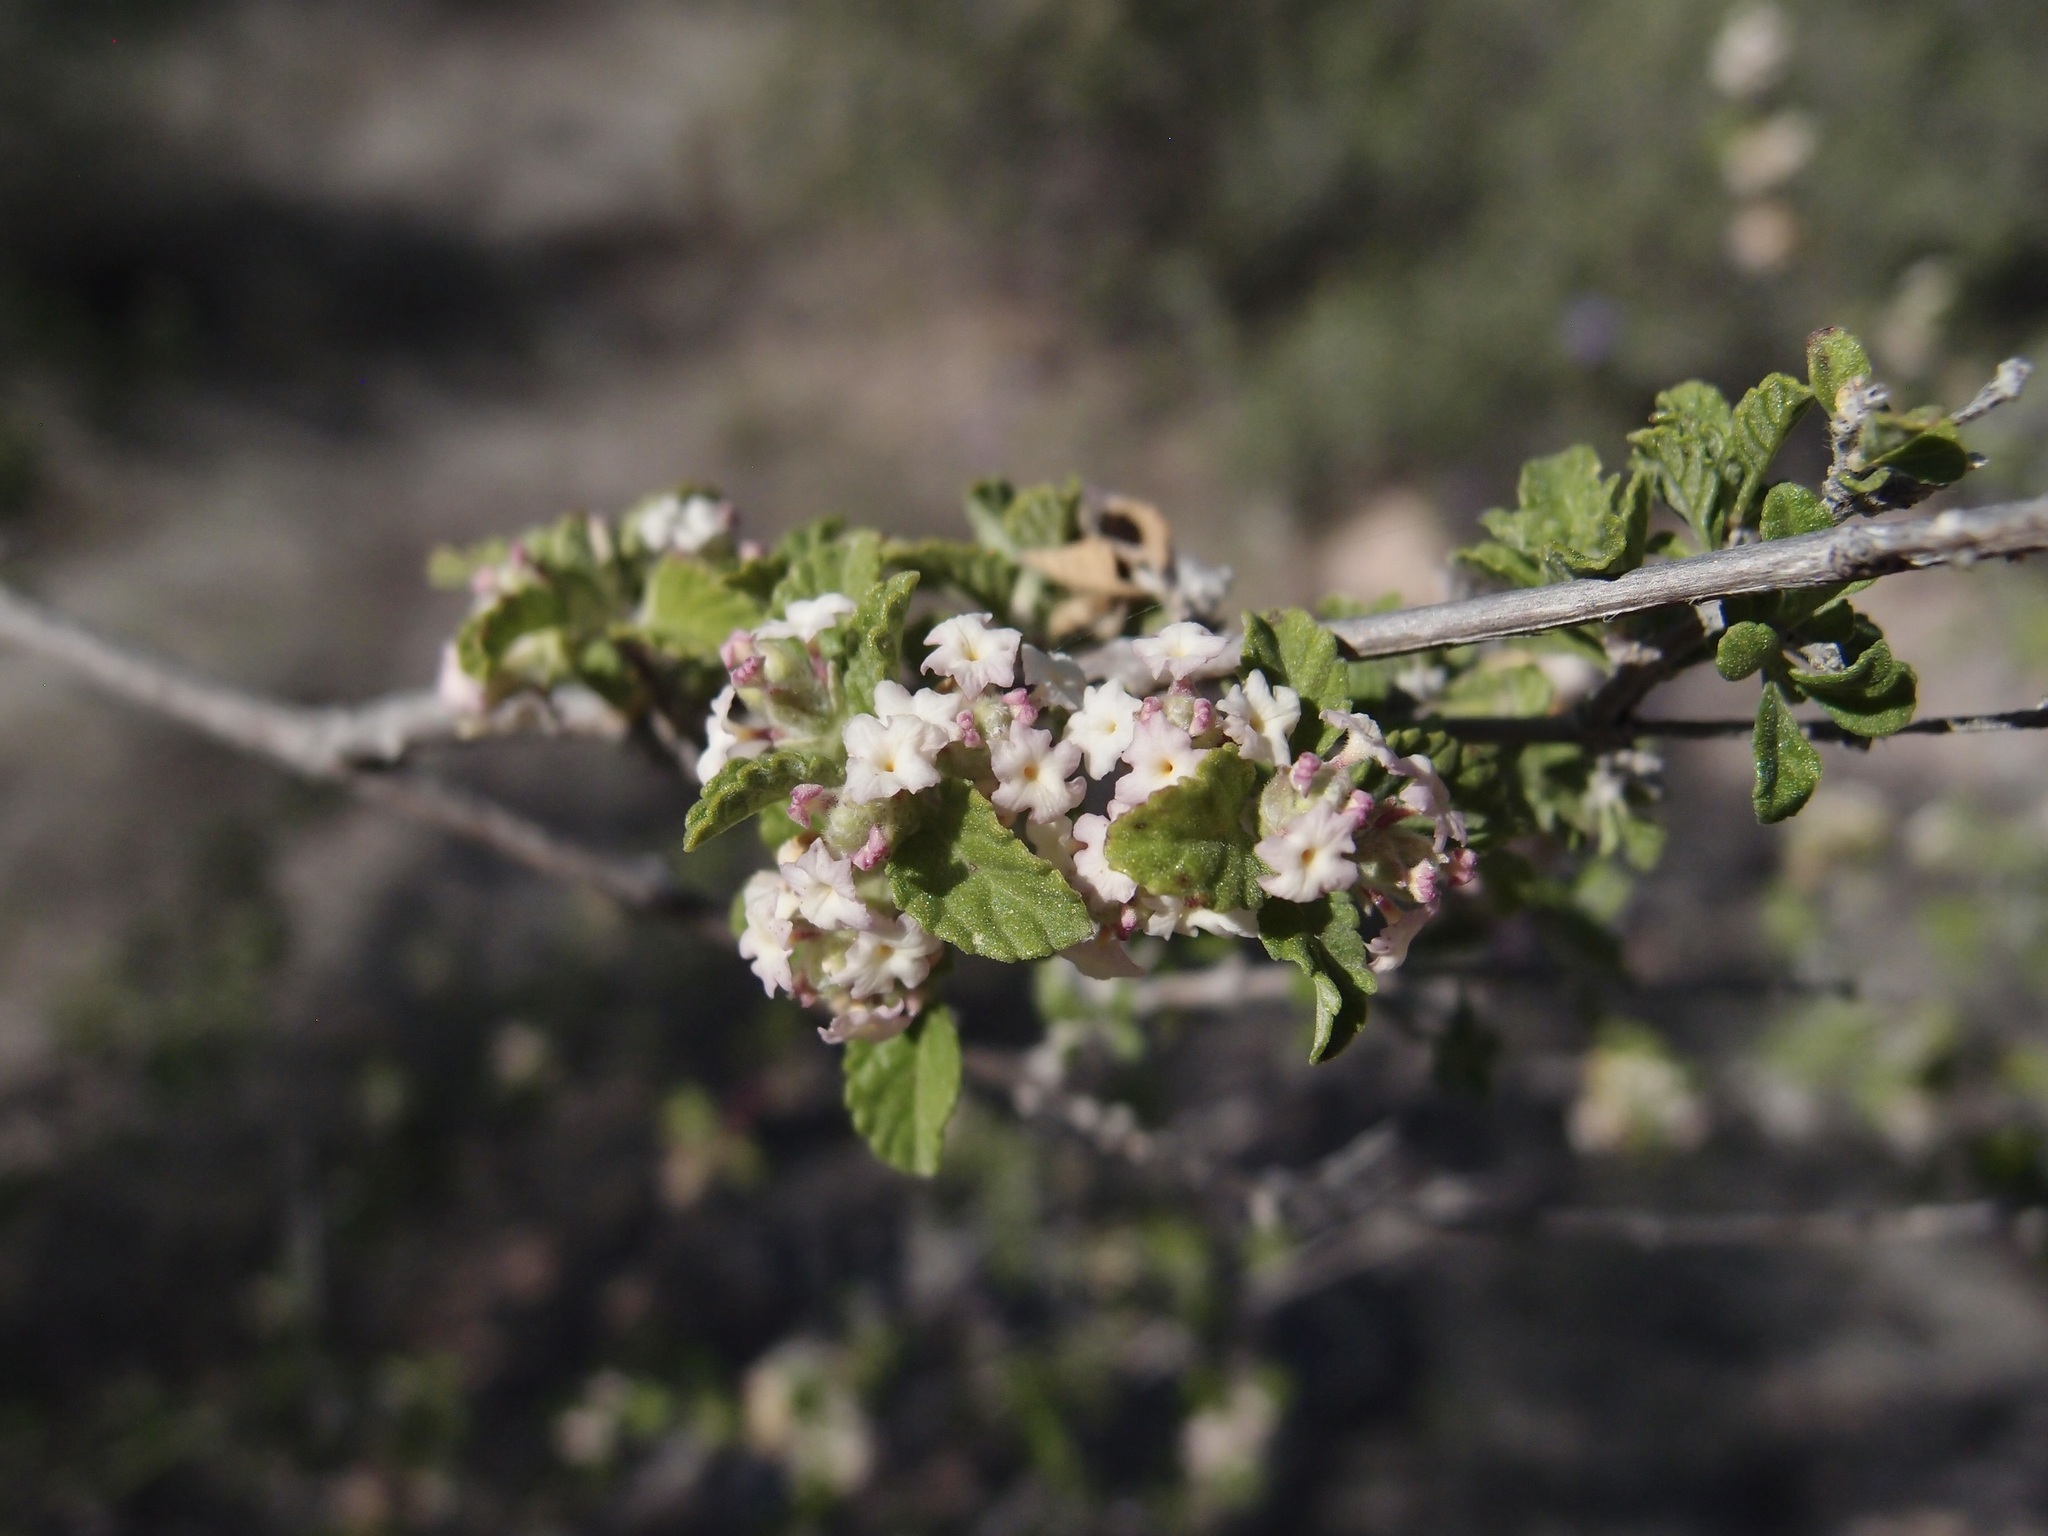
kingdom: Plantae
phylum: Tracheophyta
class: Magnoliopsida
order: Lamiales
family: Verbenaceae
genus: Lippia
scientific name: Lippia origanoides
